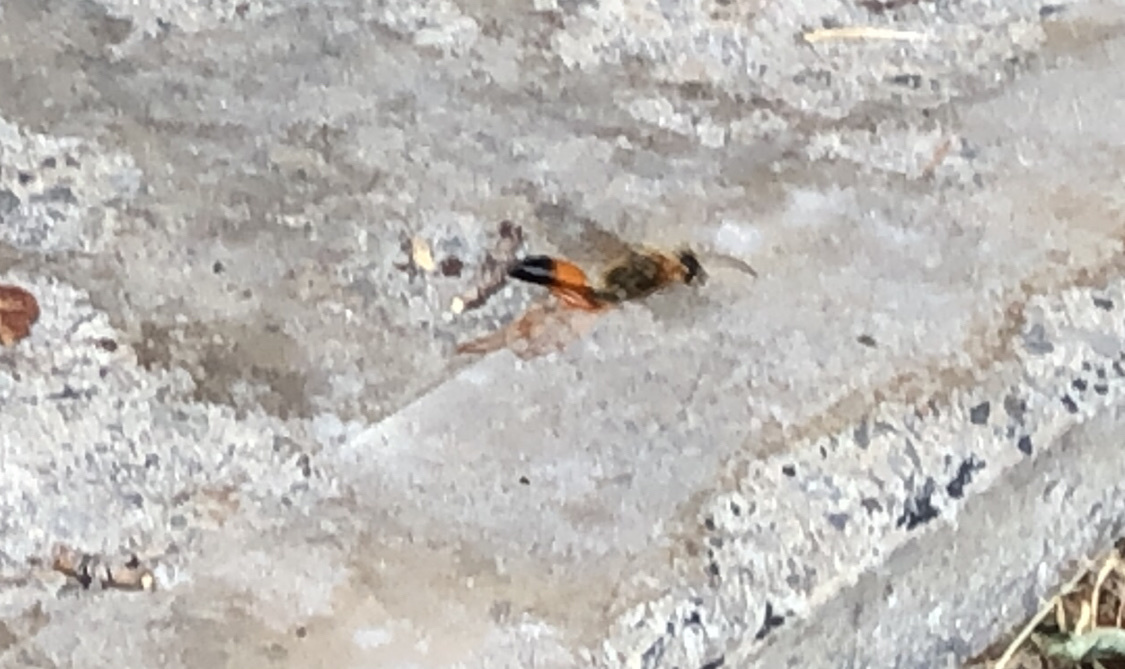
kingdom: Animalia
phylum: Arthropoda
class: Insecta
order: Hymenoptera
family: Sphecidae
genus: Sphex
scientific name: Sphex ichneumoneus
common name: Great golden digger wasp
